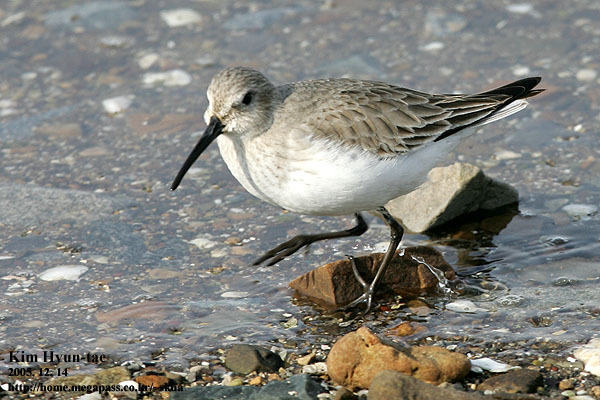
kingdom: Animalia
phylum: Chordata
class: Aves
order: Charadriiformes
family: Scolopacidae
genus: Calidris
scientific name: Calidris alpina
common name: Dunlin
